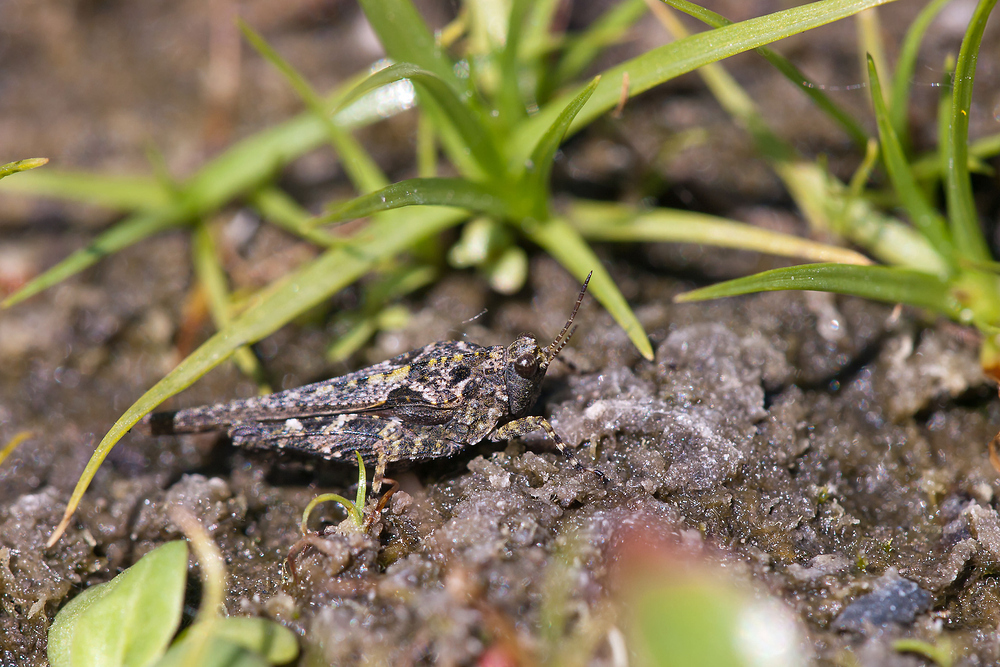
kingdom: Animalia
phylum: Arthropoda
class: Insecta
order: Orthoptera
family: Tetrigidae
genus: Tetrix
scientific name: Tetrix ceperoi
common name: Cepero's ground-hopper
